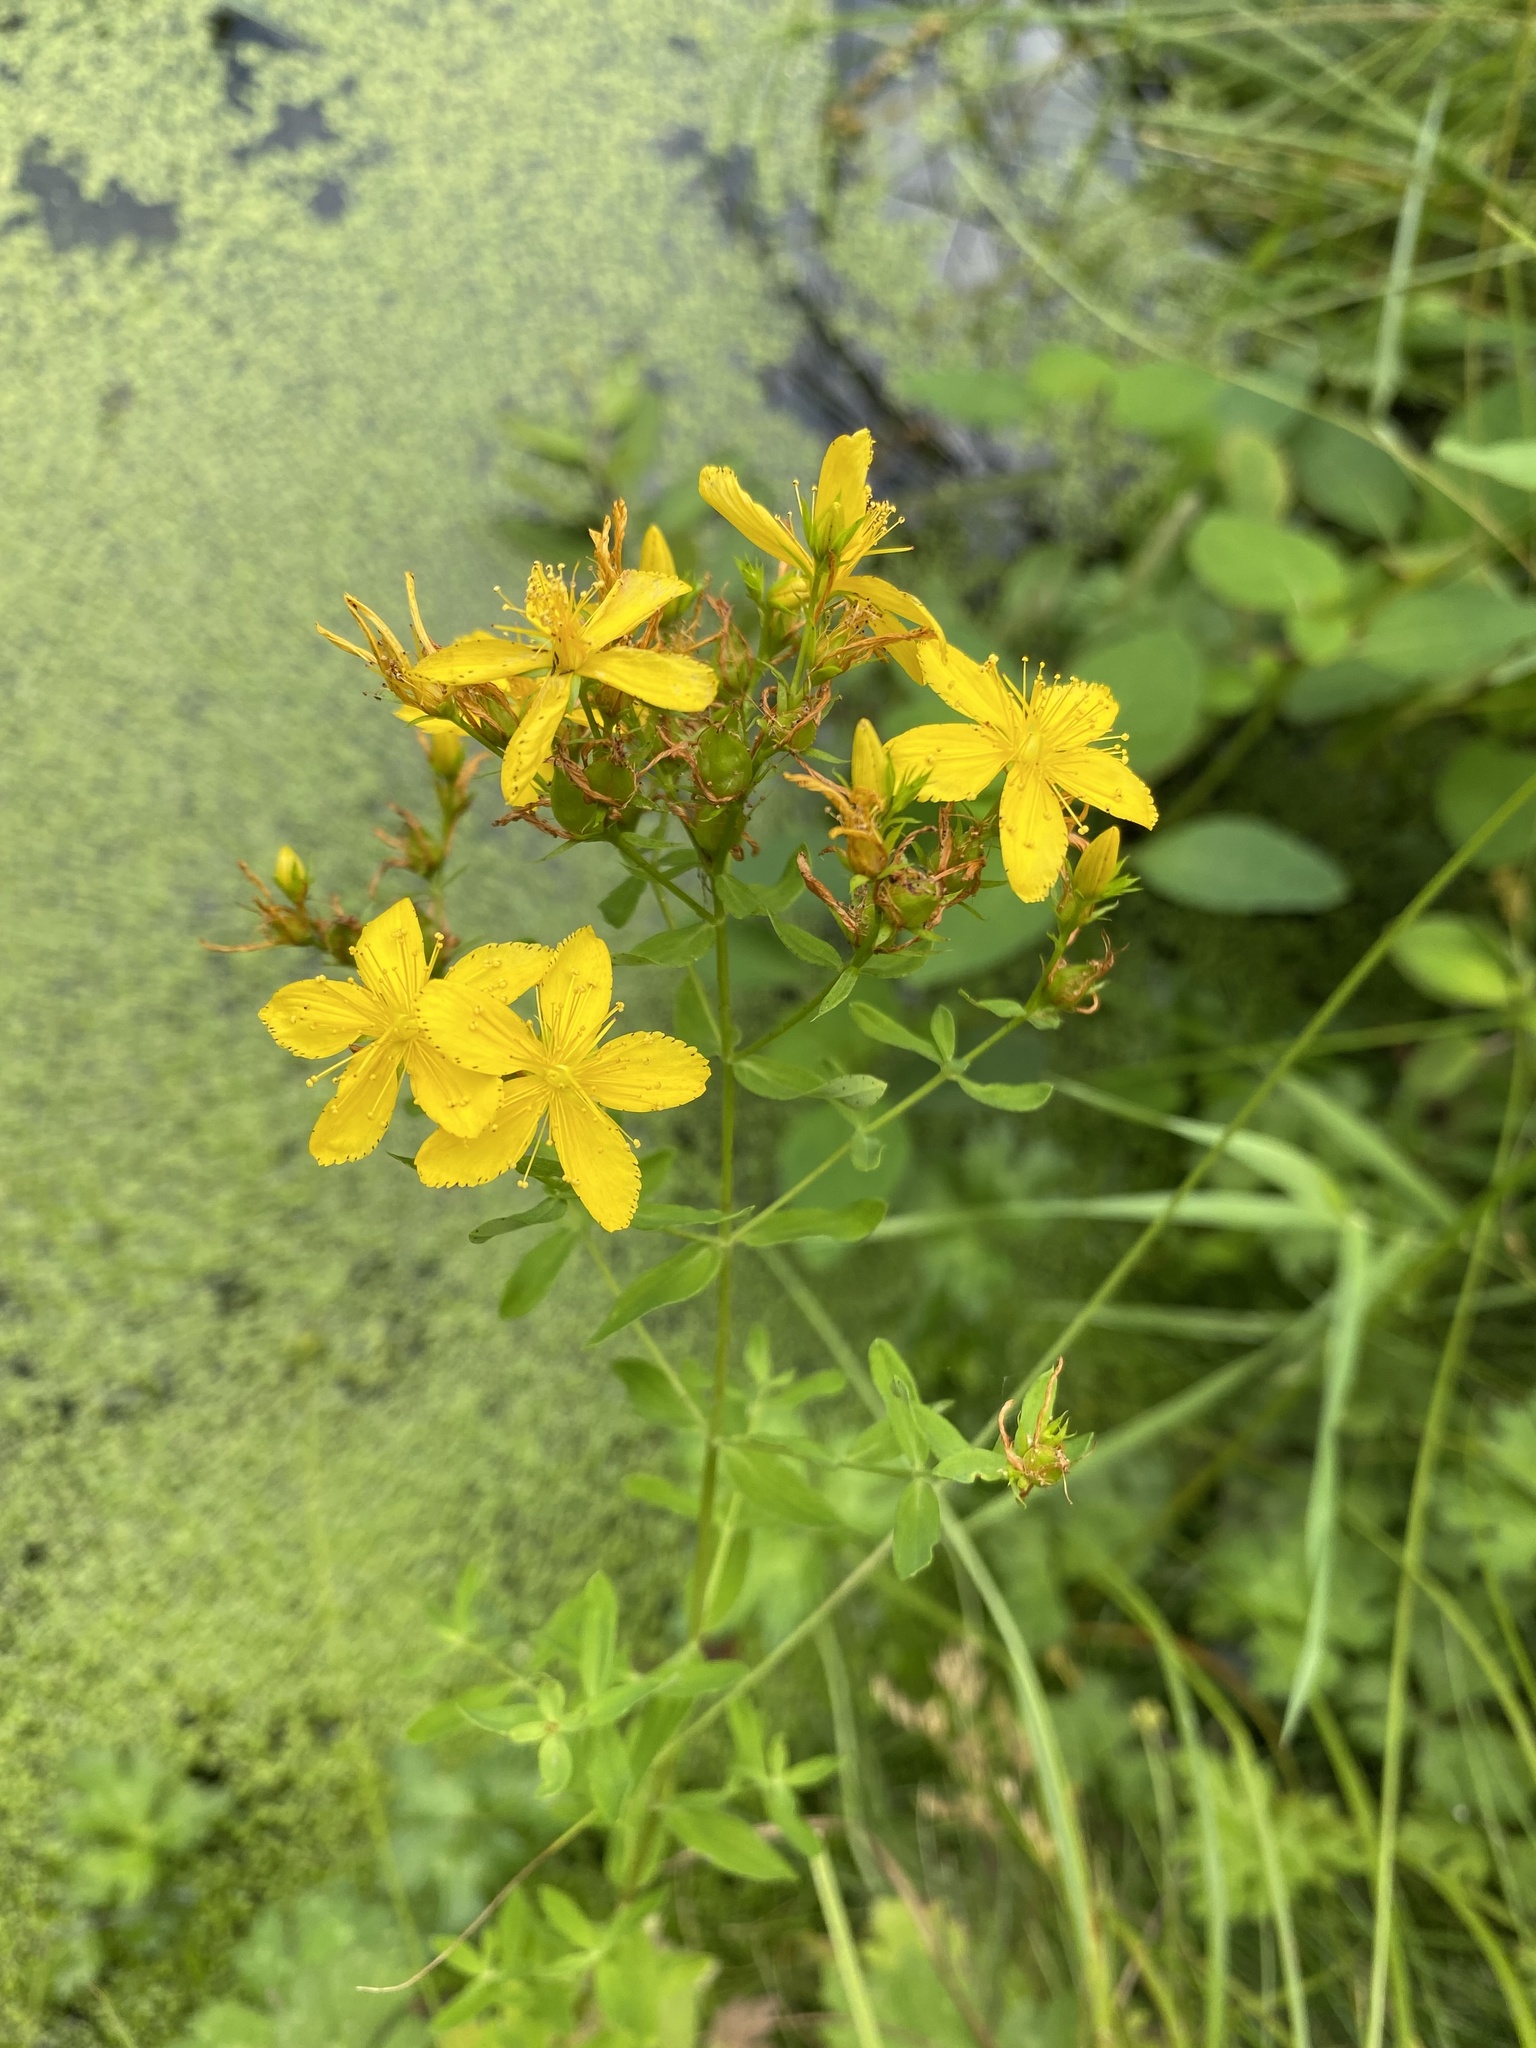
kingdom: Plantae
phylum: Tracheophyta
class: Magnoliopsida
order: Malpighiales
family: Hypericaceae
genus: Hypericum
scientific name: Hypericum perforatum
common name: Common st. johnswort
